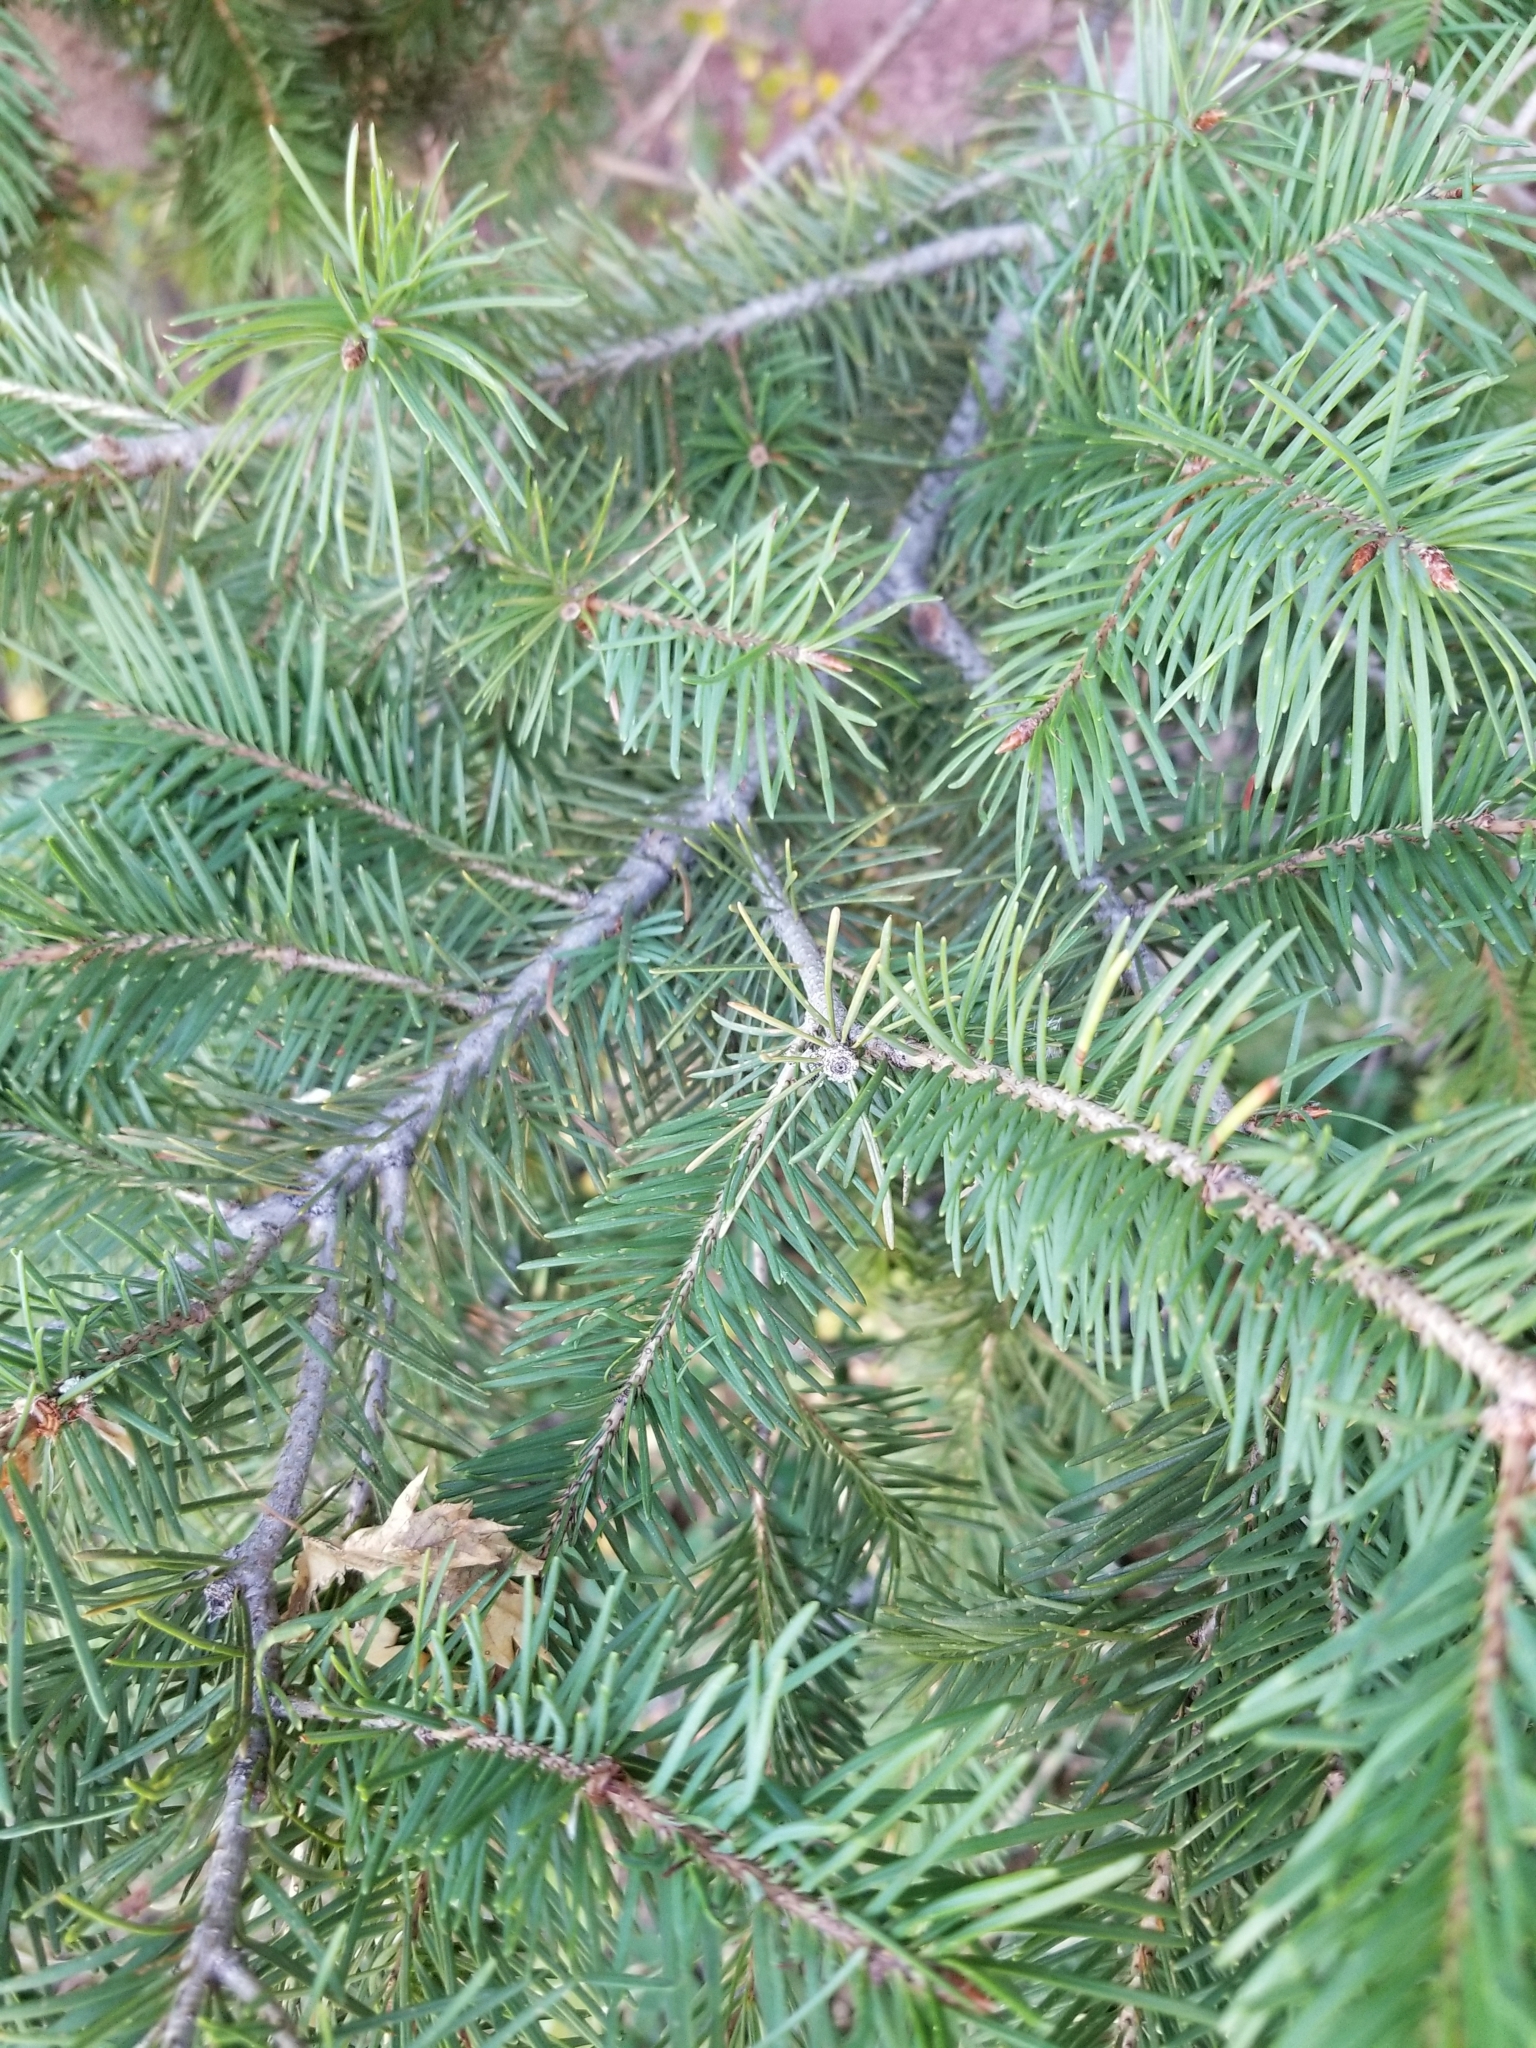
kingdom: Plantae
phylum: Tracheophyta
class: Pinopsida
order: Pinales
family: Pinaceae
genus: Pseudotsuga
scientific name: Pseudotsuga menziesii
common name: Douglas fir
